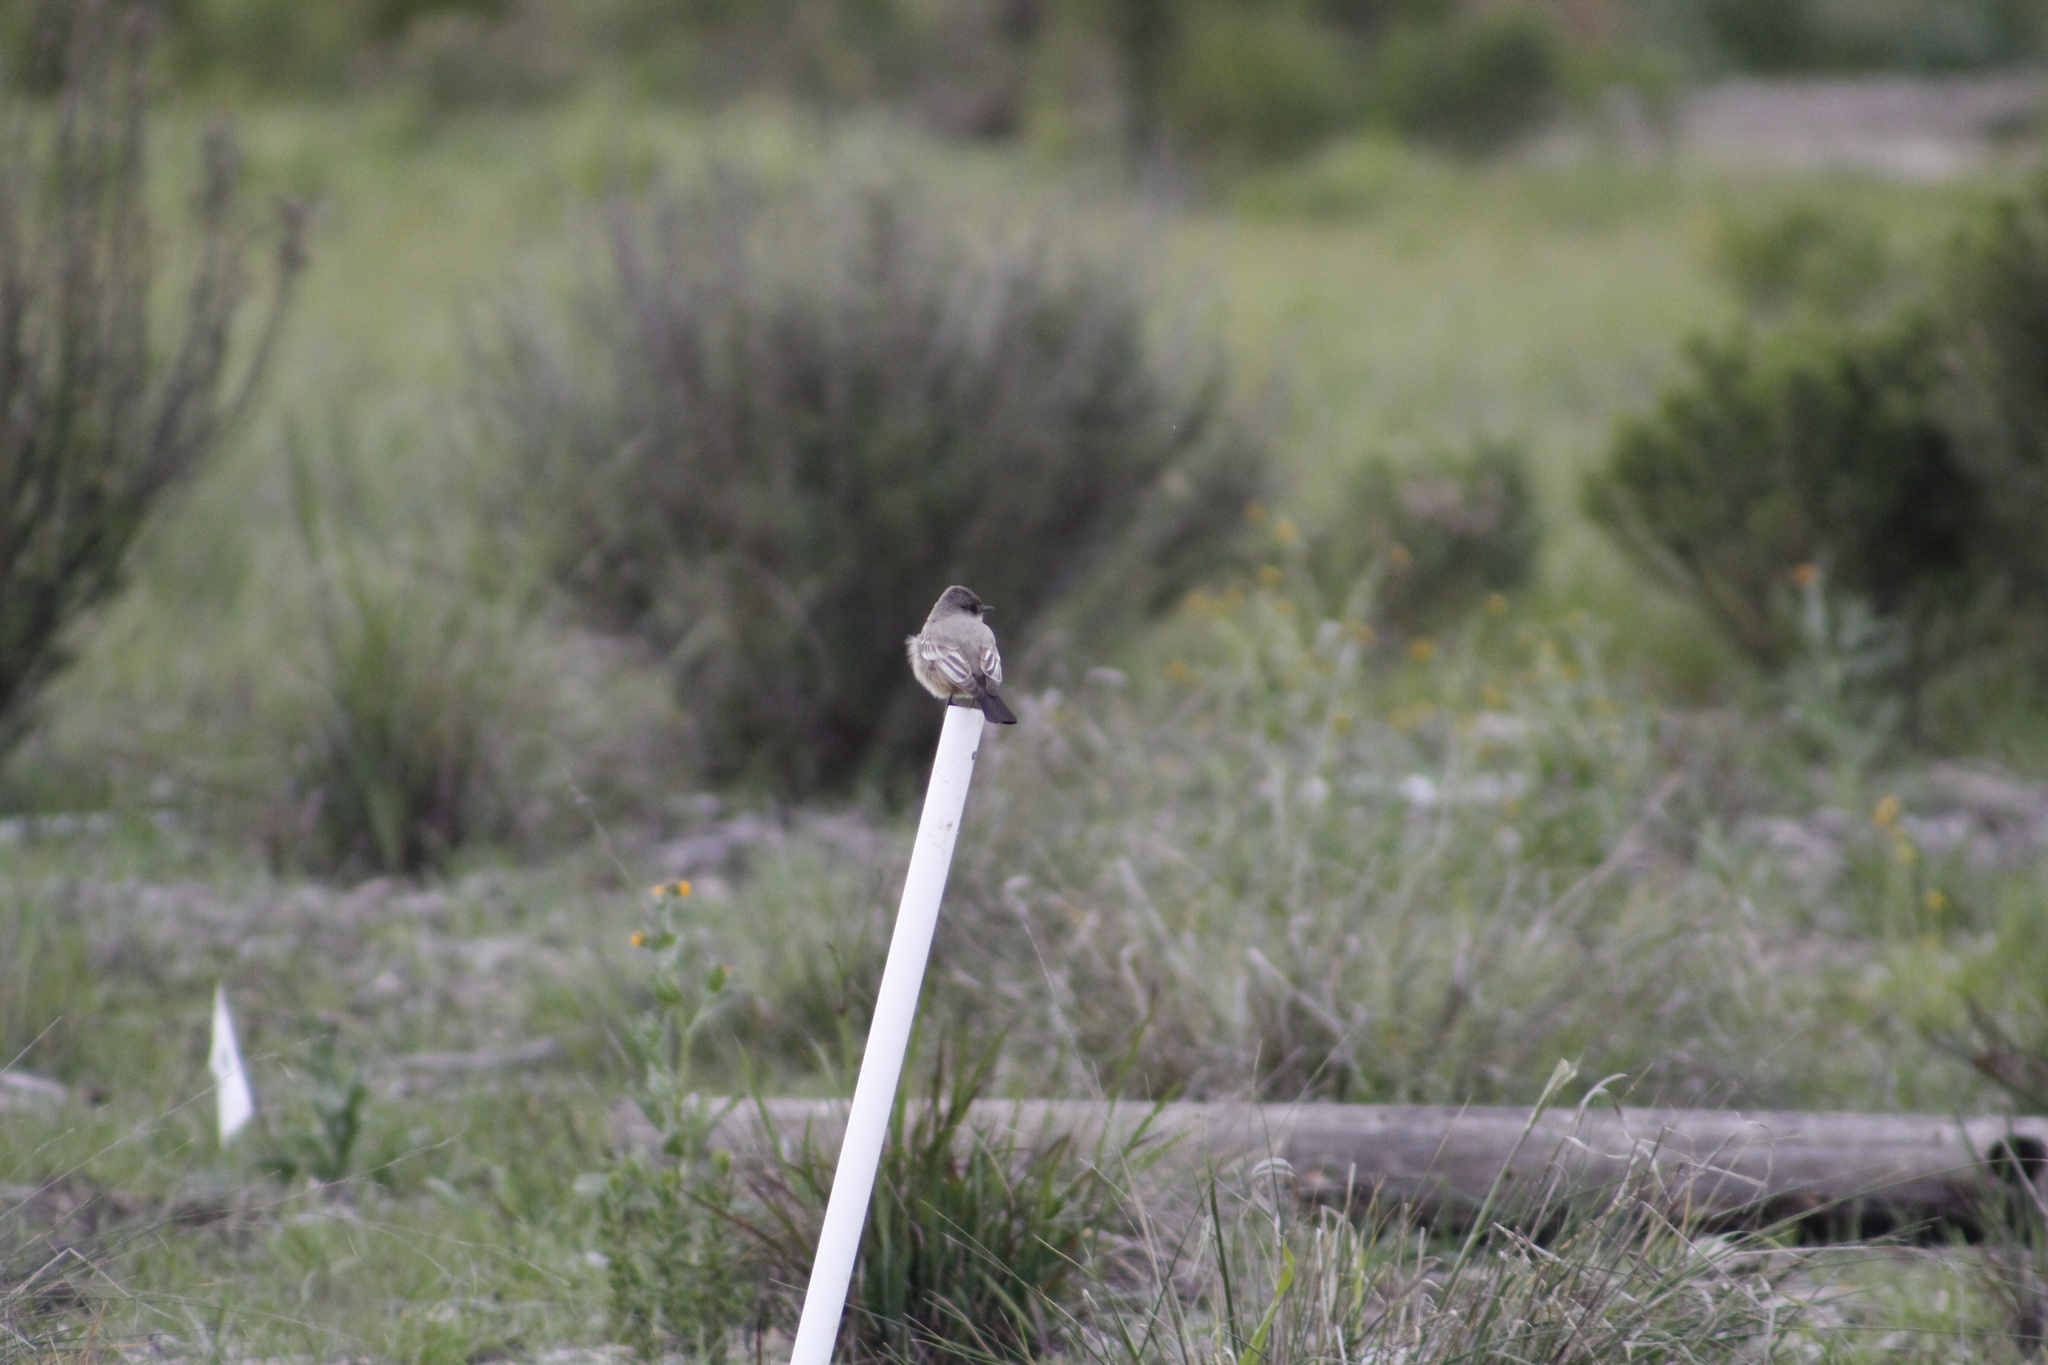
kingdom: Animalia
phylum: Chordata
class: Aves
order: Passeriformes
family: Tyrannidae
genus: Sayornis
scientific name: Sayornis saya
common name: Say's phoebe
